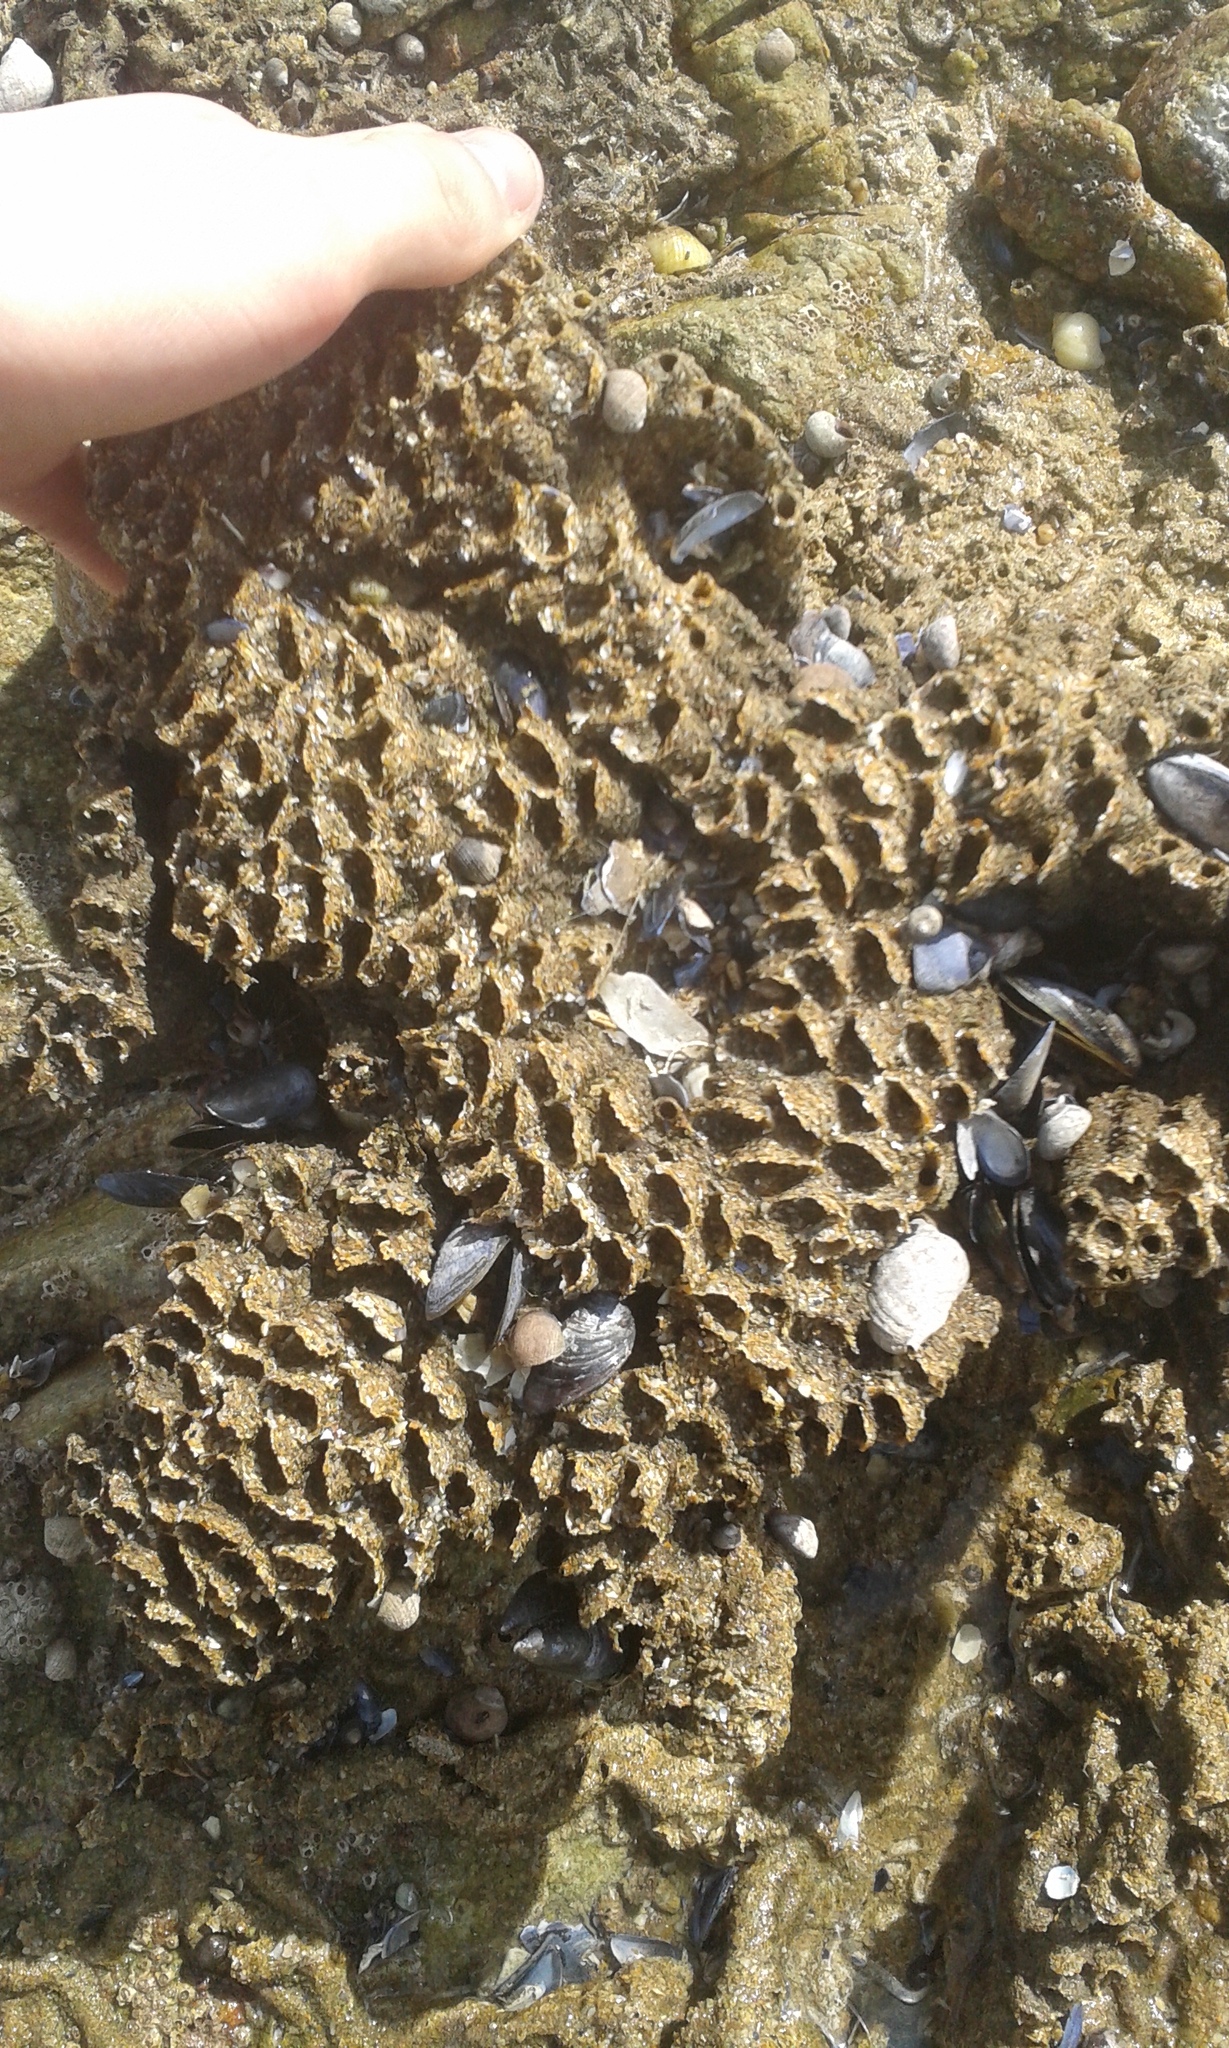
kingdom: Animalia
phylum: Annelida
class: Polychaeta
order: Sabellida
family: Sabellariidae
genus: Sabellaria
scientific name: Sabellaria alveolata
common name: Honeycomb worm
